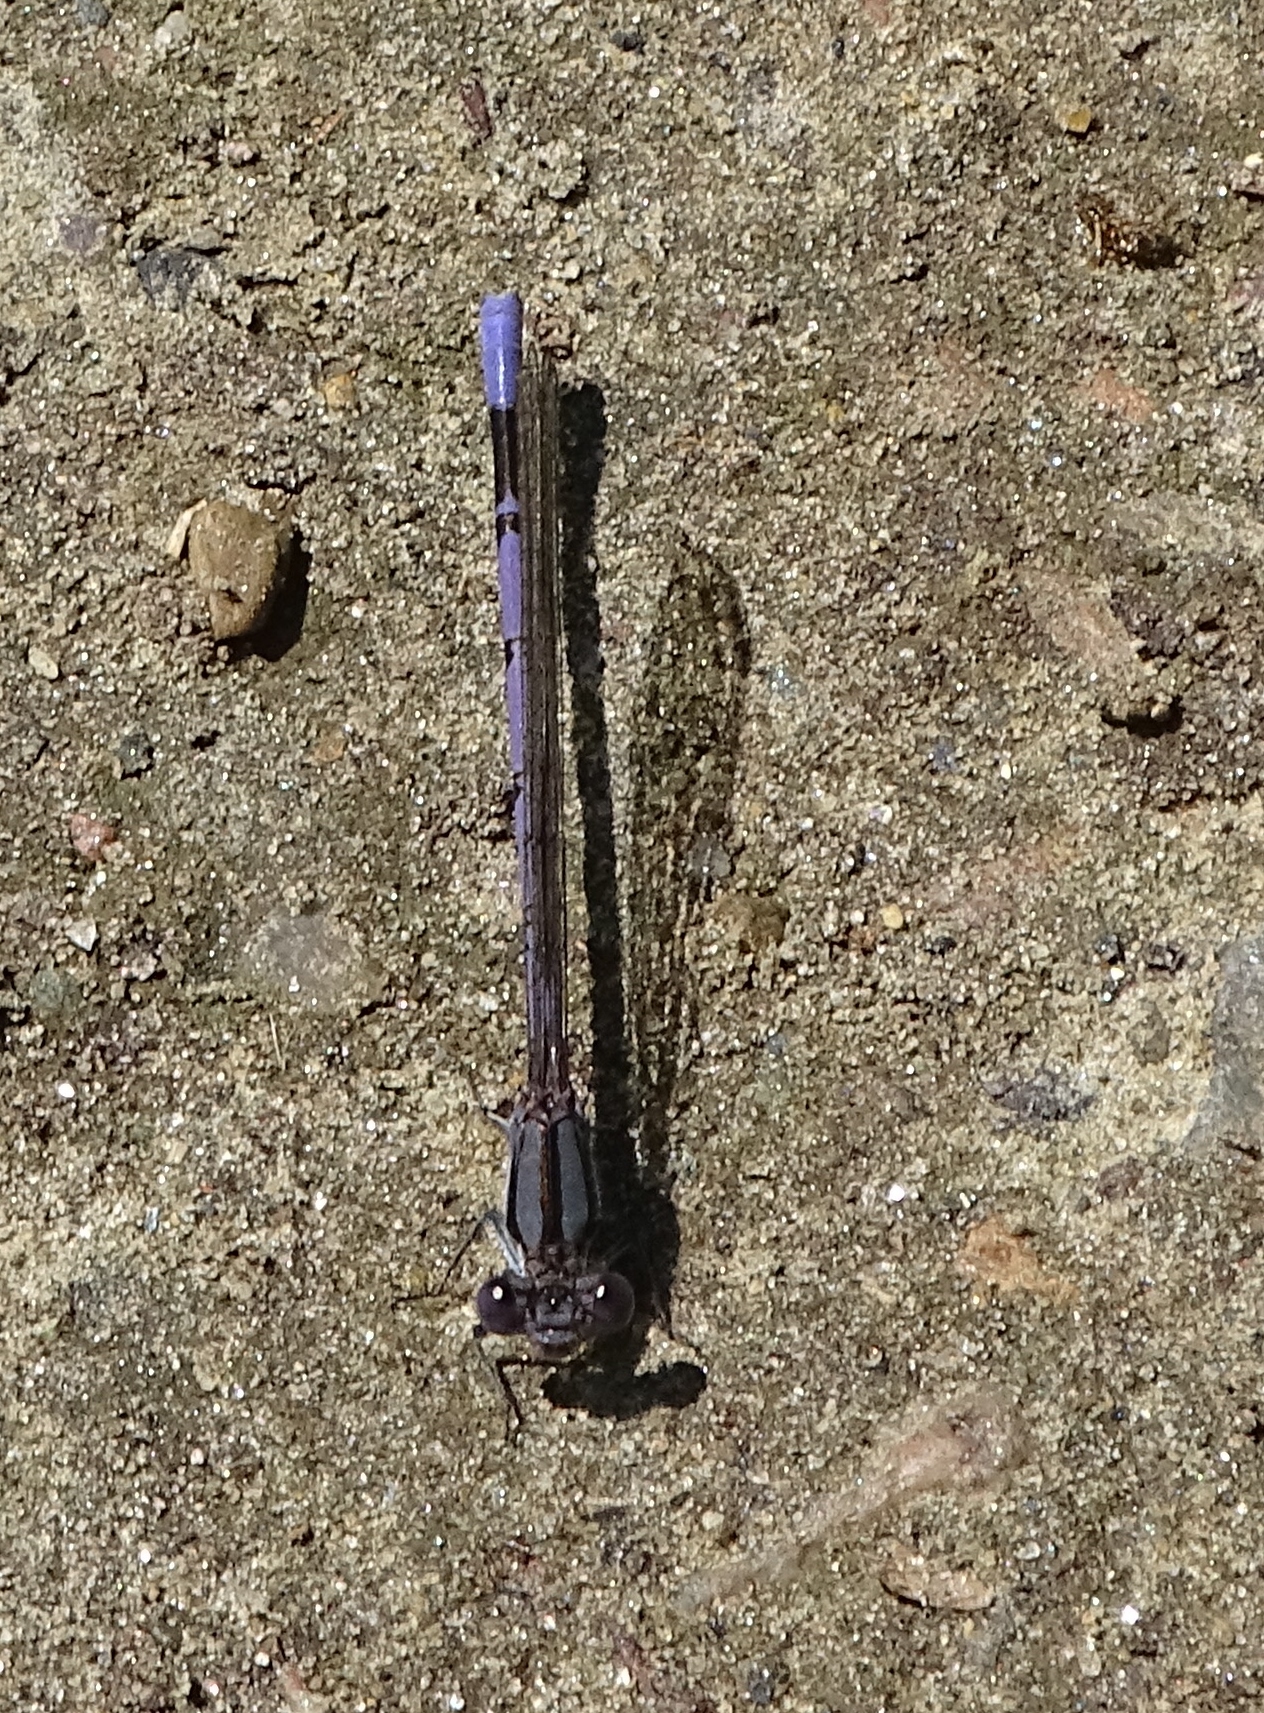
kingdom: Animalia
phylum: Arthropoda
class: Insecta
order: Odonata
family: Coenagrionidae
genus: Argia
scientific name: Argia fumipennis
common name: Variable dancer
